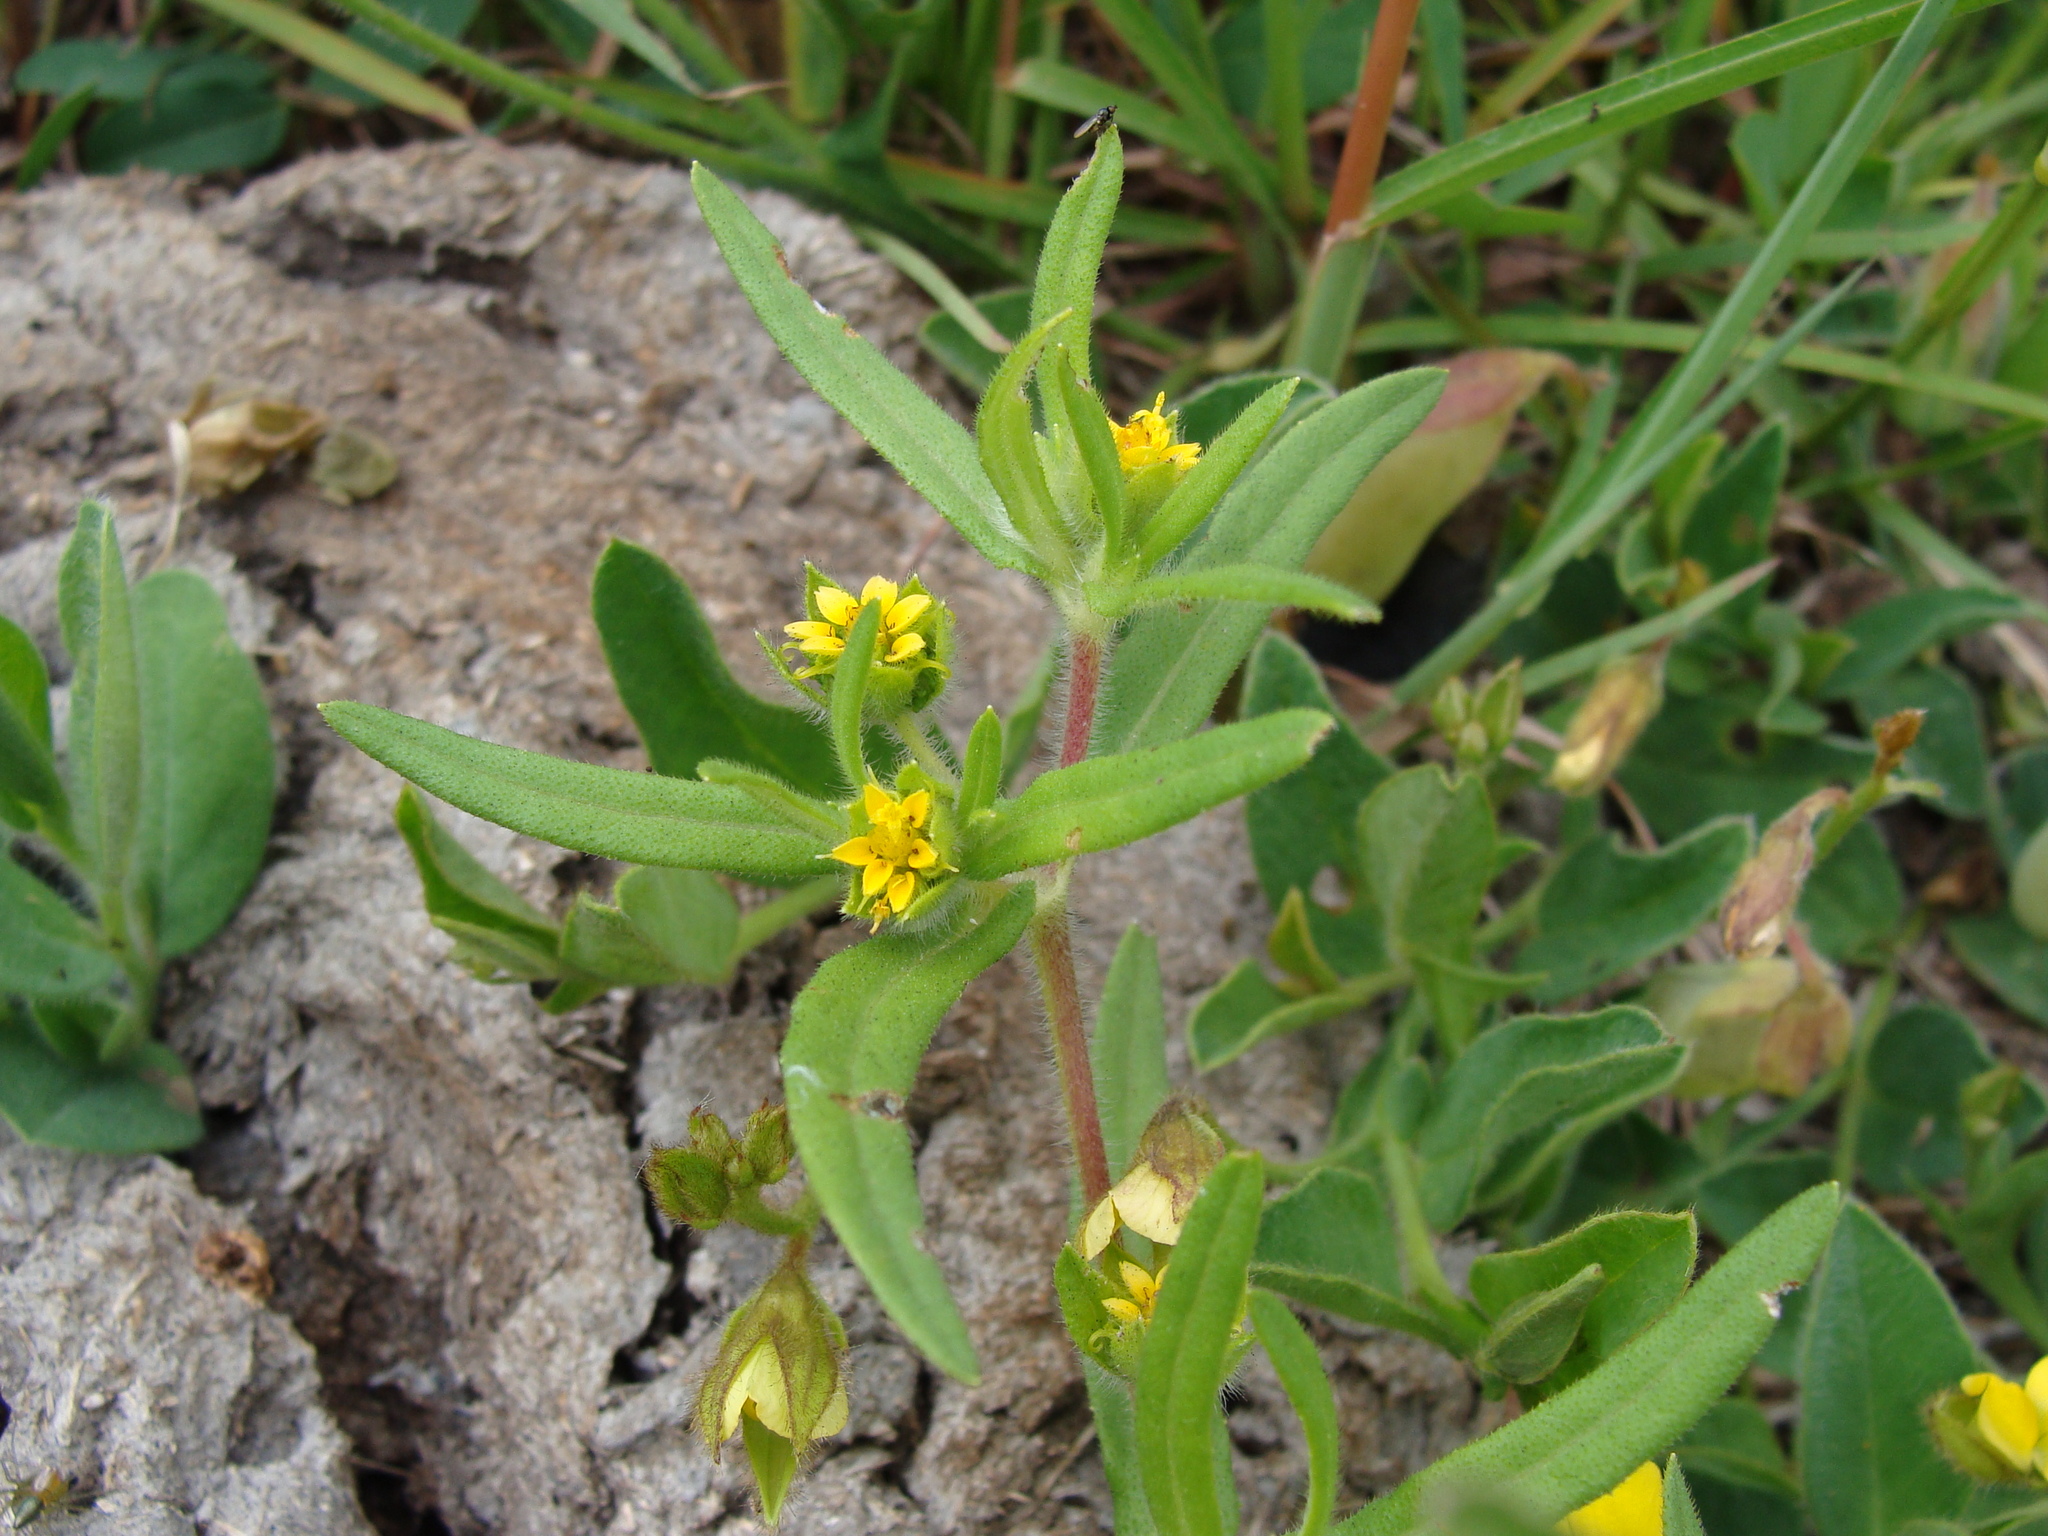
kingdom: Plantae
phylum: Tracheophyta
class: Magnoliopsida
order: Asterales
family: Asteraceae
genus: Melampodium
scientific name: Melampodium sericeum
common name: Rough blackfoot
